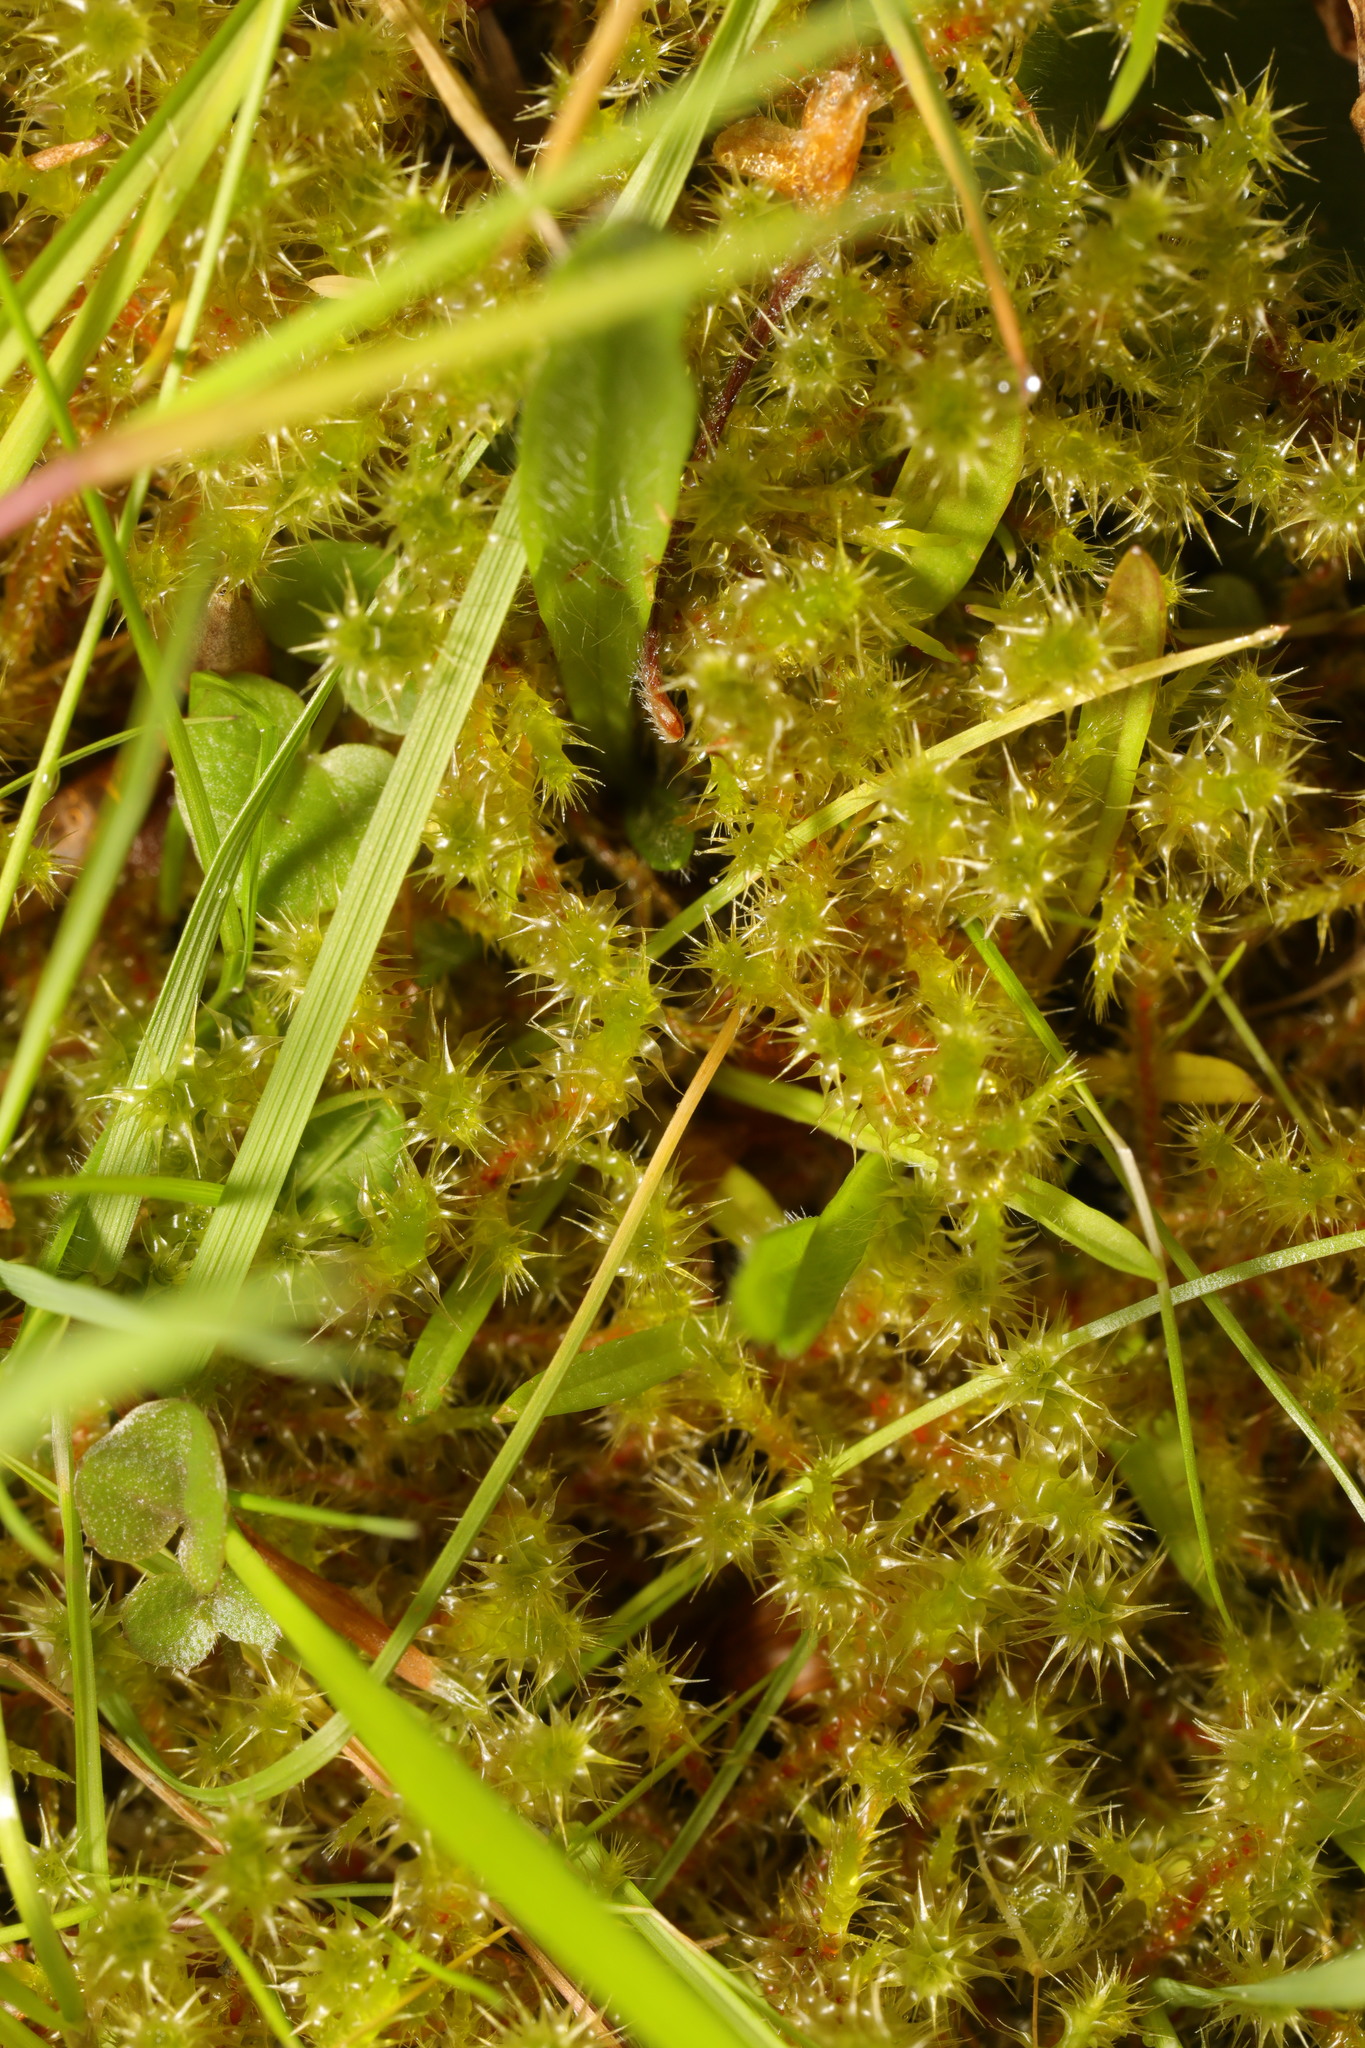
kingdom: Plantae
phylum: Bryophyta
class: Bryopsida
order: Hypnales
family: Hylocomiaceae
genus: Rhytidiadelphus
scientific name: Rhytidiadelphus squarrosus
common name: Springy turf-moss
